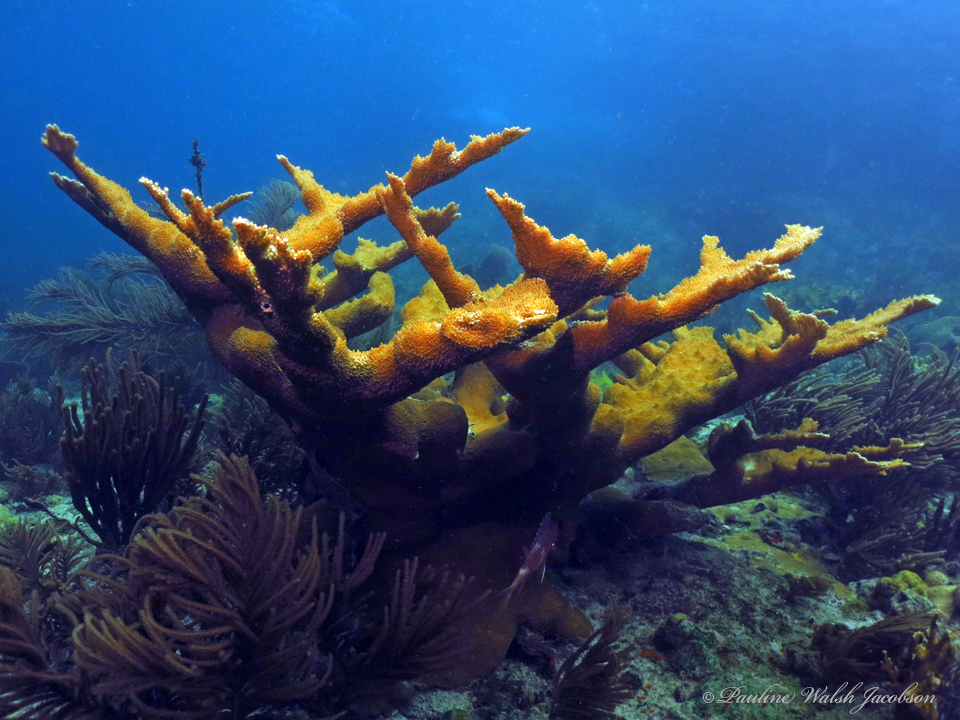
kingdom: Animalia
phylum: Cnidaria
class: Anthozoa
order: Scleractinia
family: Acroporidae
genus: Acropora
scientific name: Acropora palmata
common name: Elkhorn coral
